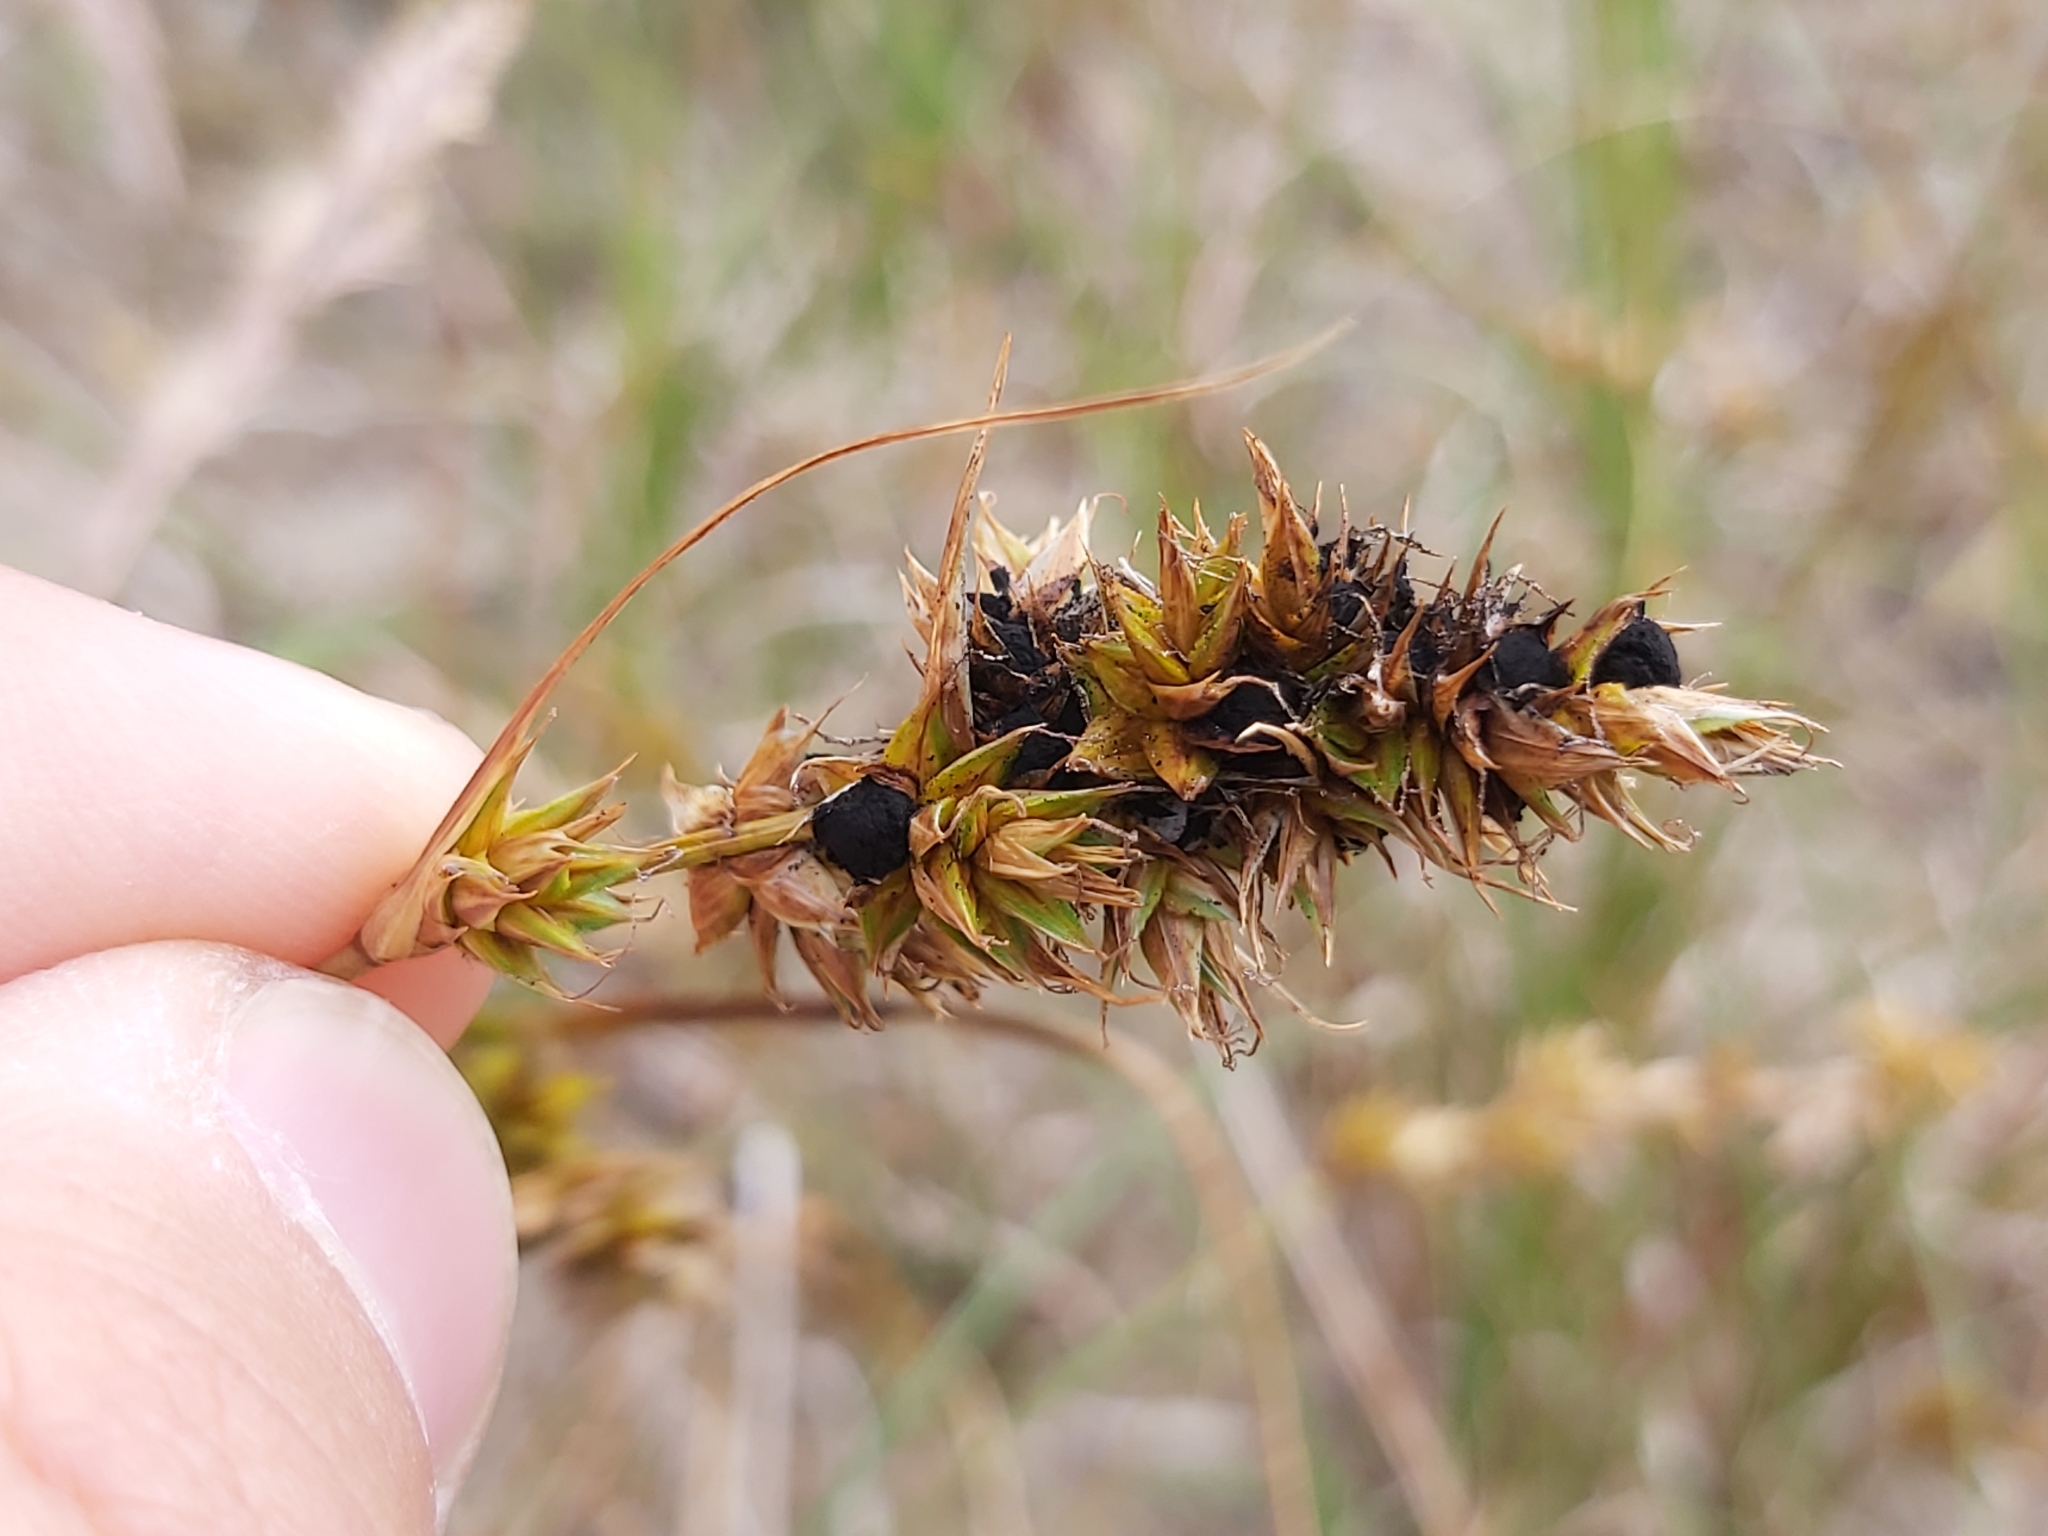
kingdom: Fungi
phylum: Basidiomycota
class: Ustilaginomycetes
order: Ustilaginales
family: Anthracoideaceae
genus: Anthracoidea
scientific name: Anthracoidea arenariae
